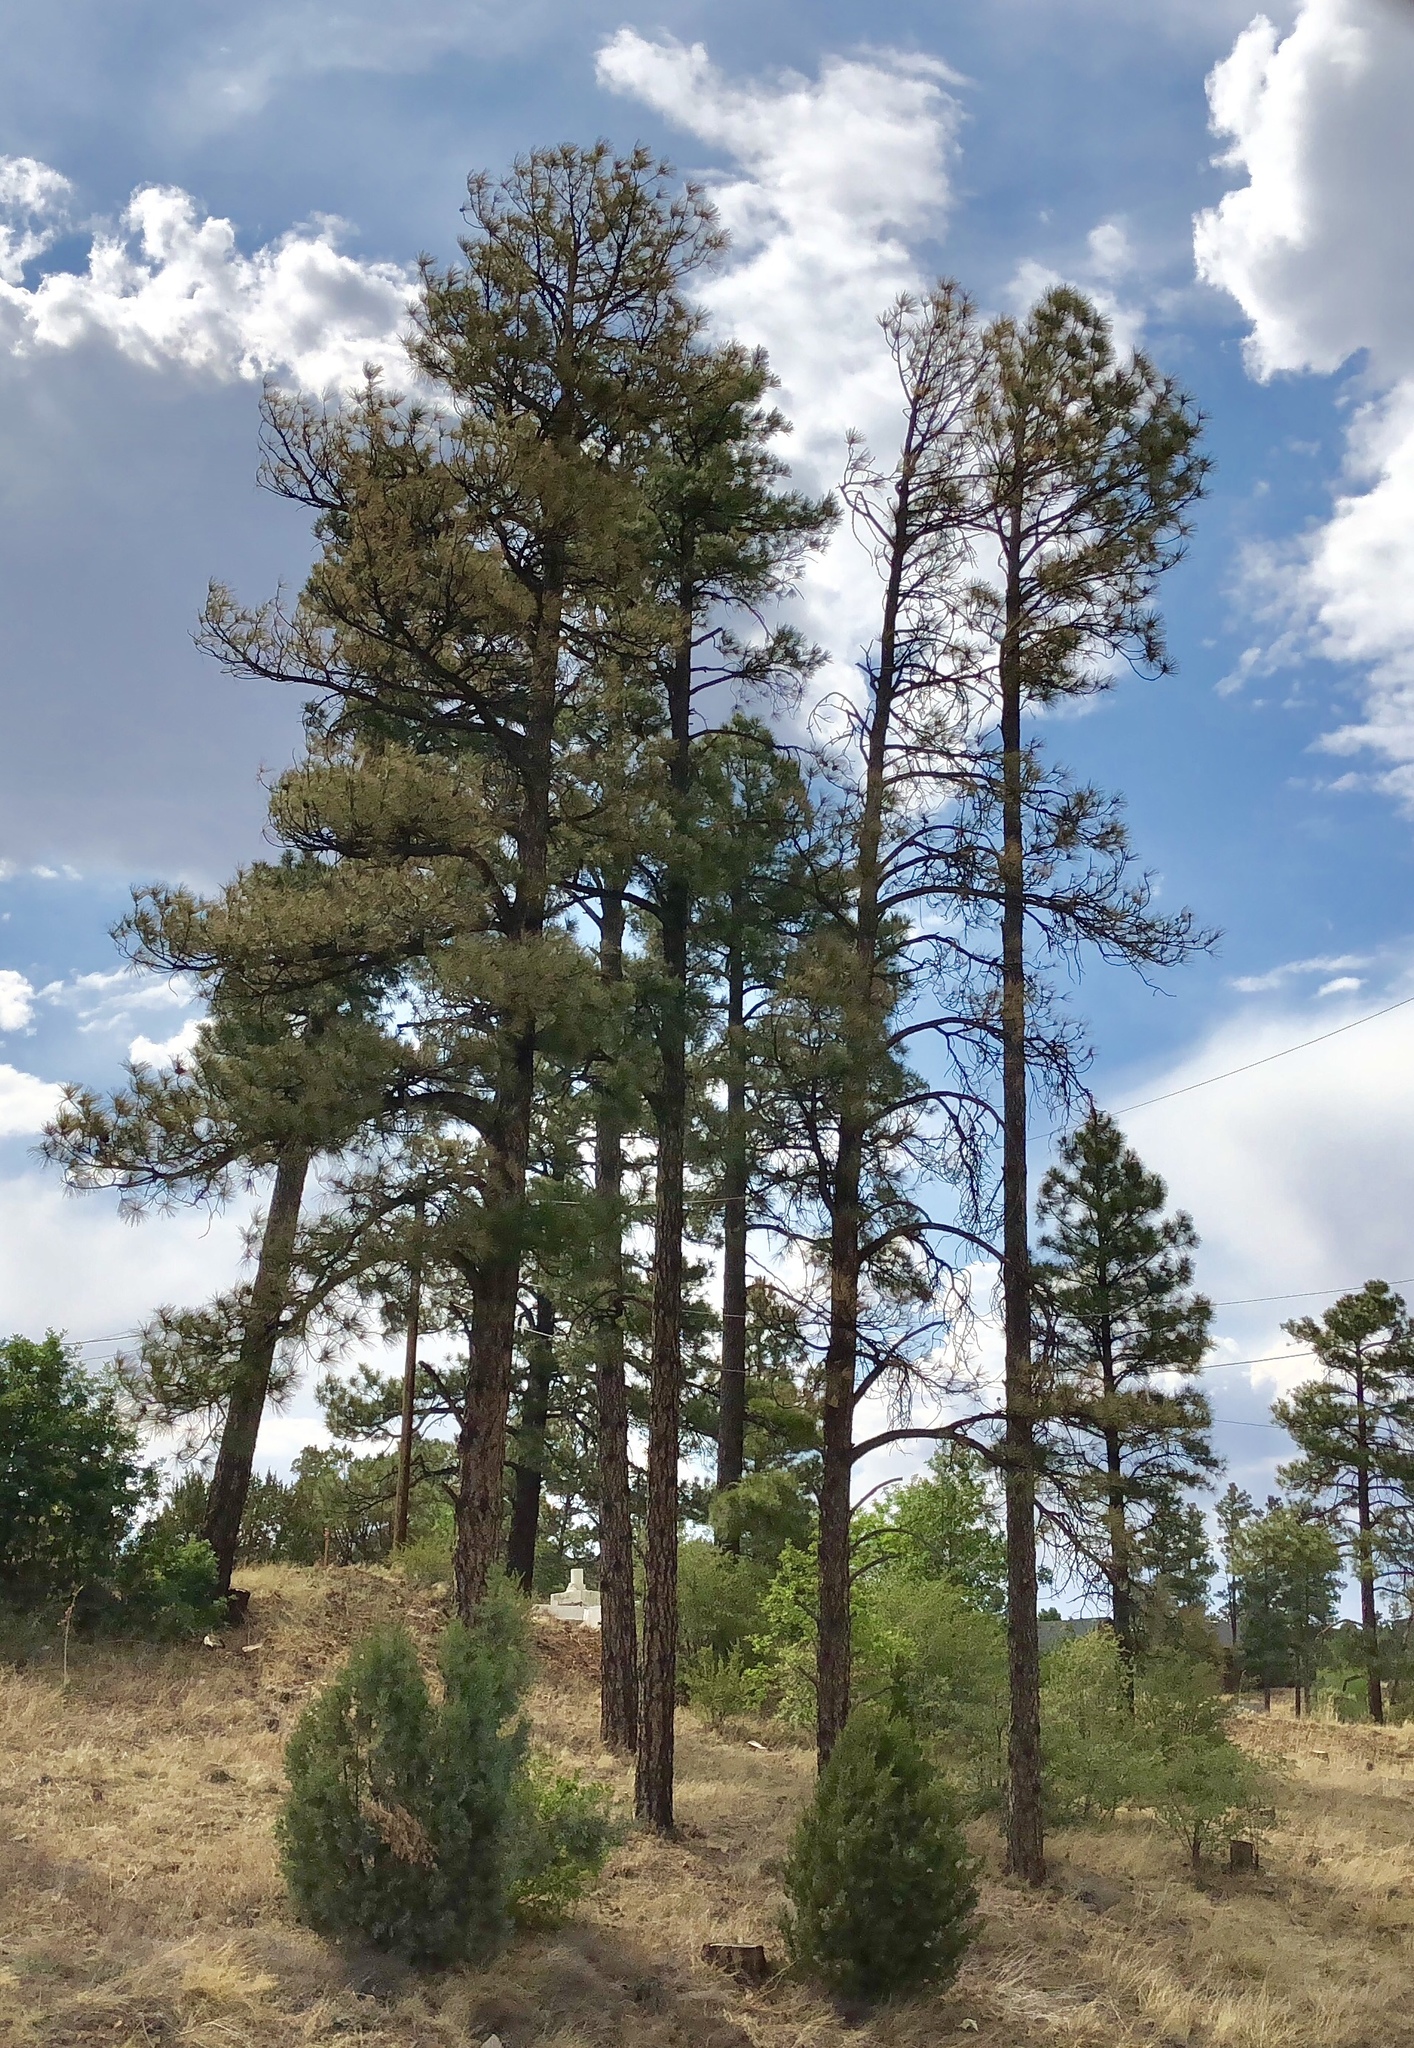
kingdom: Plantae
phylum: Tracheophyta
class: Pinopsida
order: Pinales
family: Pinaceae
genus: Pinus
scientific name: Pinus ponderosa
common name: Western yellow-pine
